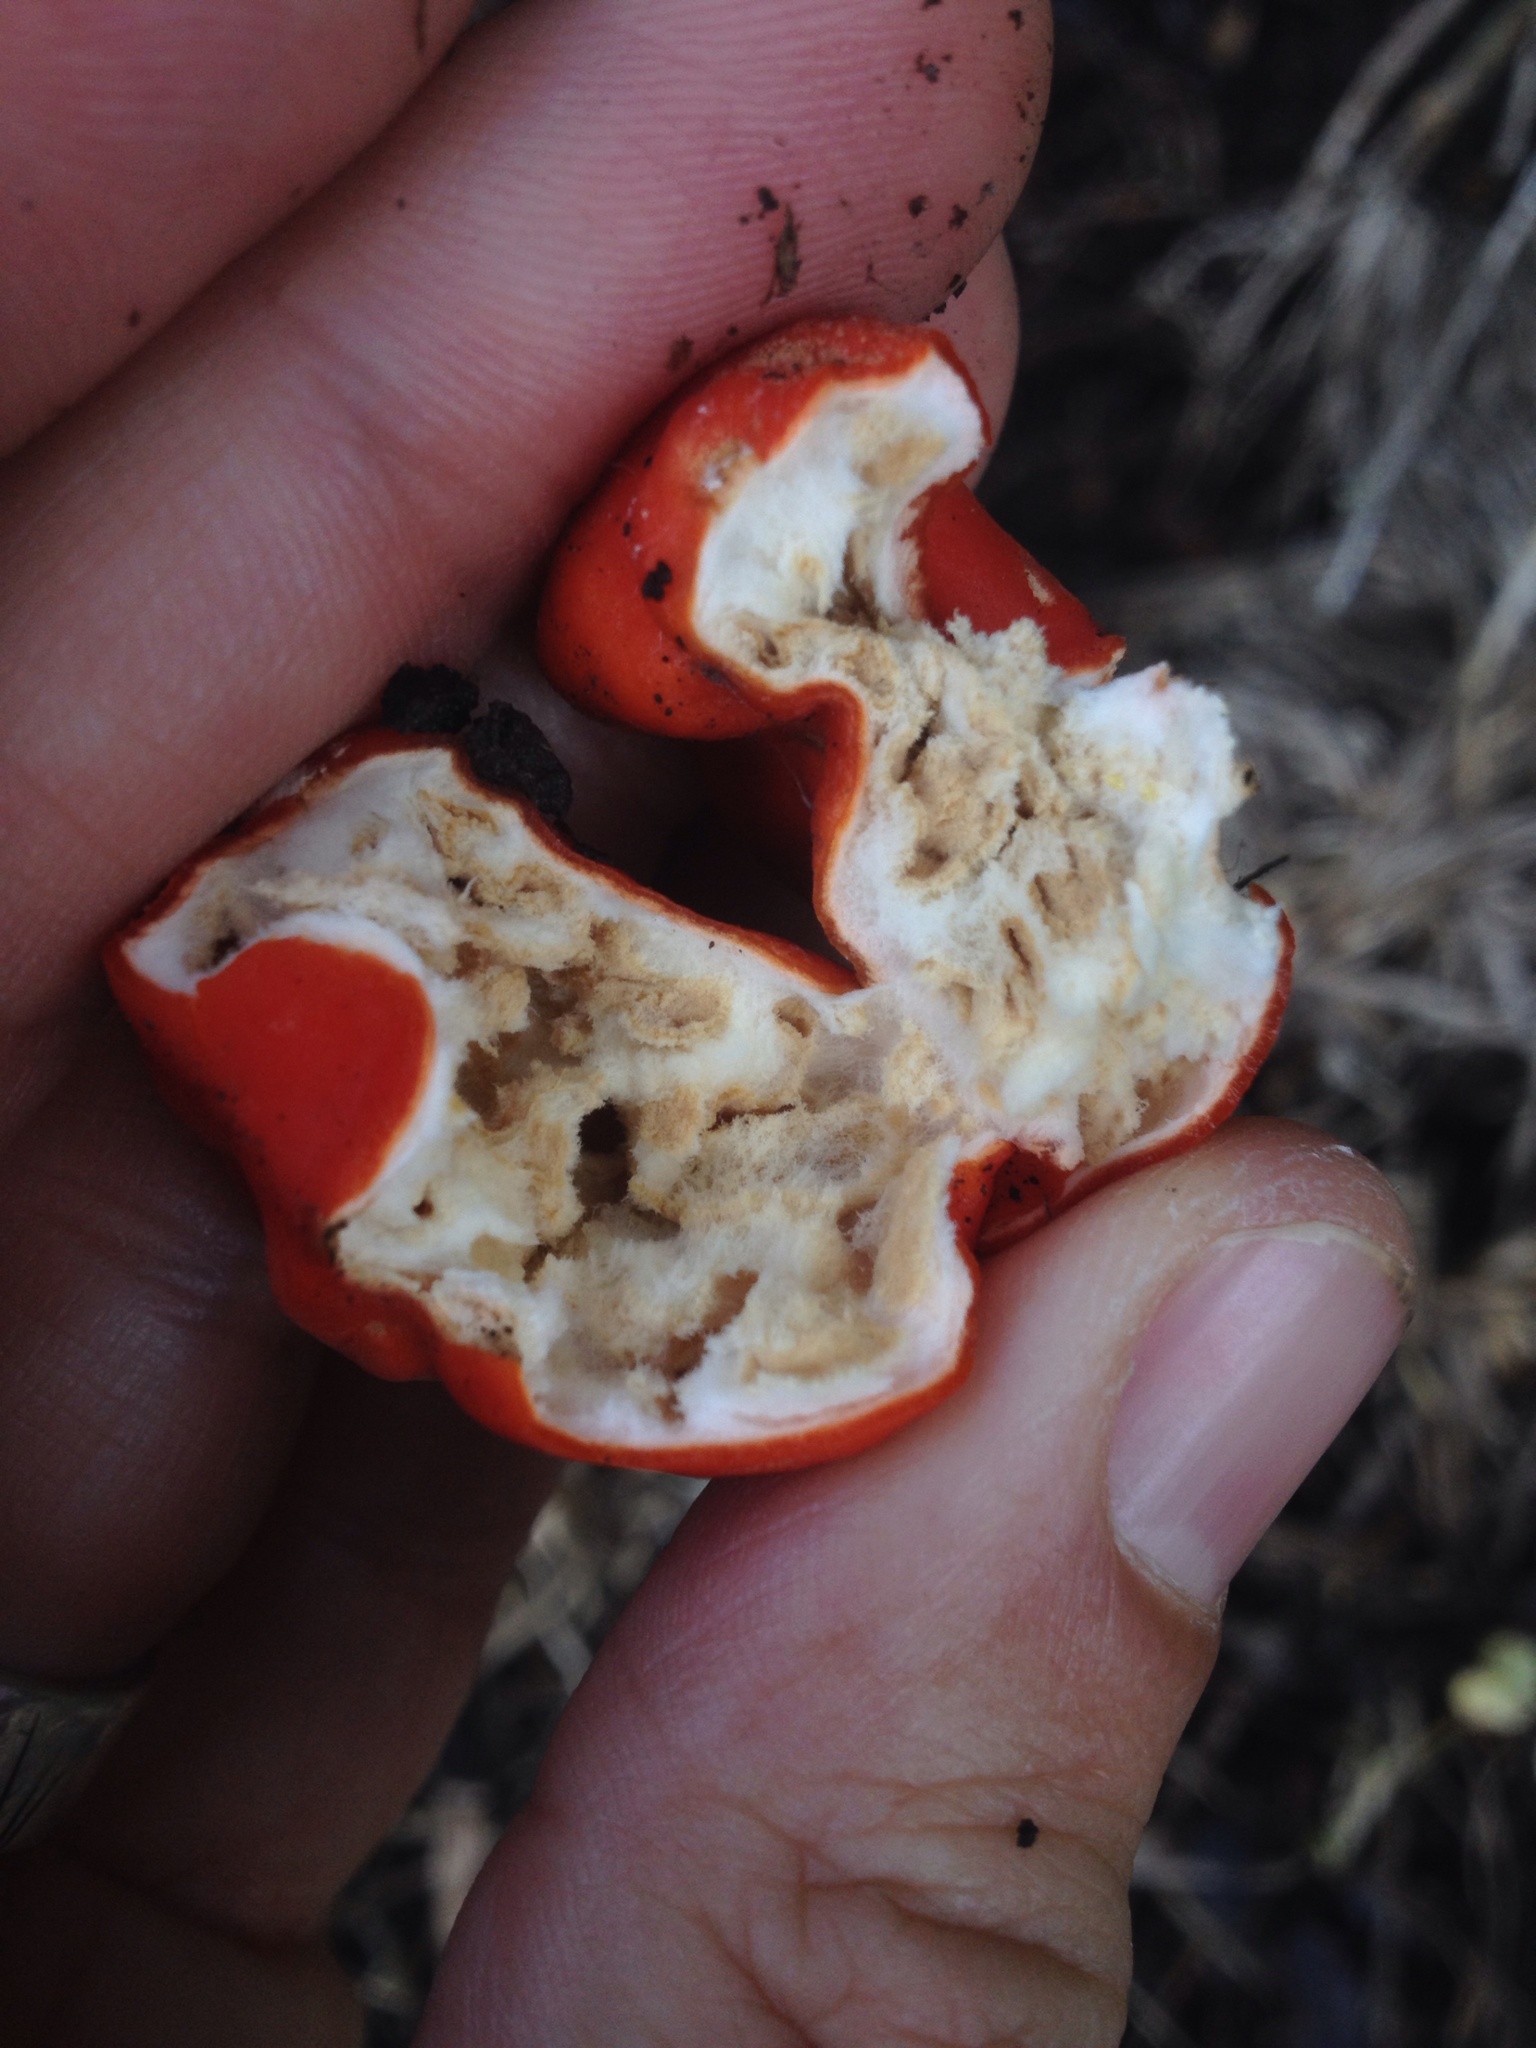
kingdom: Fungi
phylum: Ascomycota
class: Pezizomycetes
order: Pezizales
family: Pyronemataceae
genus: Paurocotylis
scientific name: Paurocotylis pila
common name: Scarlet berry truffle
